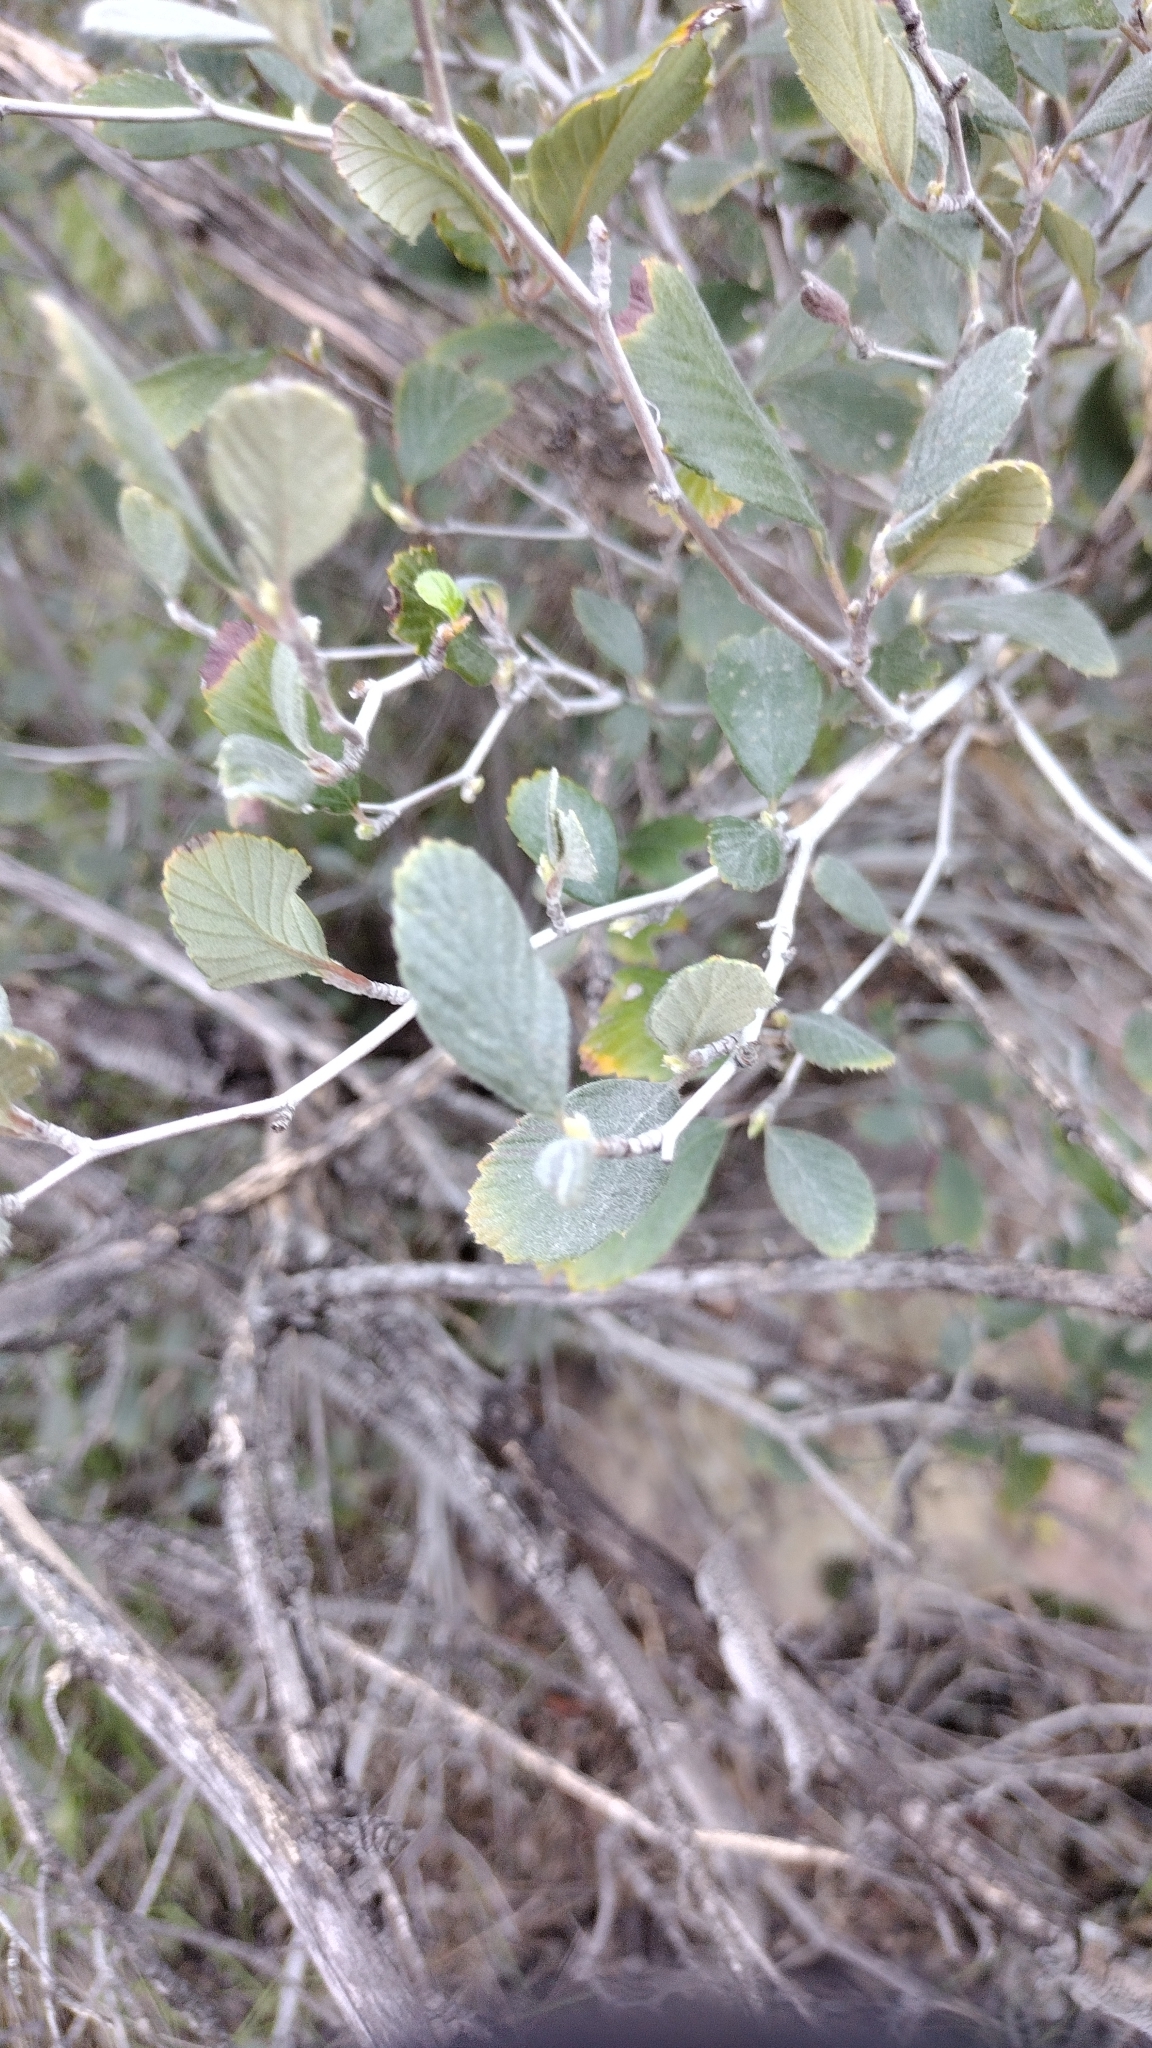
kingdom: Plantae
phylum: Tracheophyta
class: Magnoliopsida
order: Rosales
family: Rosaceae
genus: Cercocarpus
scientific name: Cercocarpus betuloides
